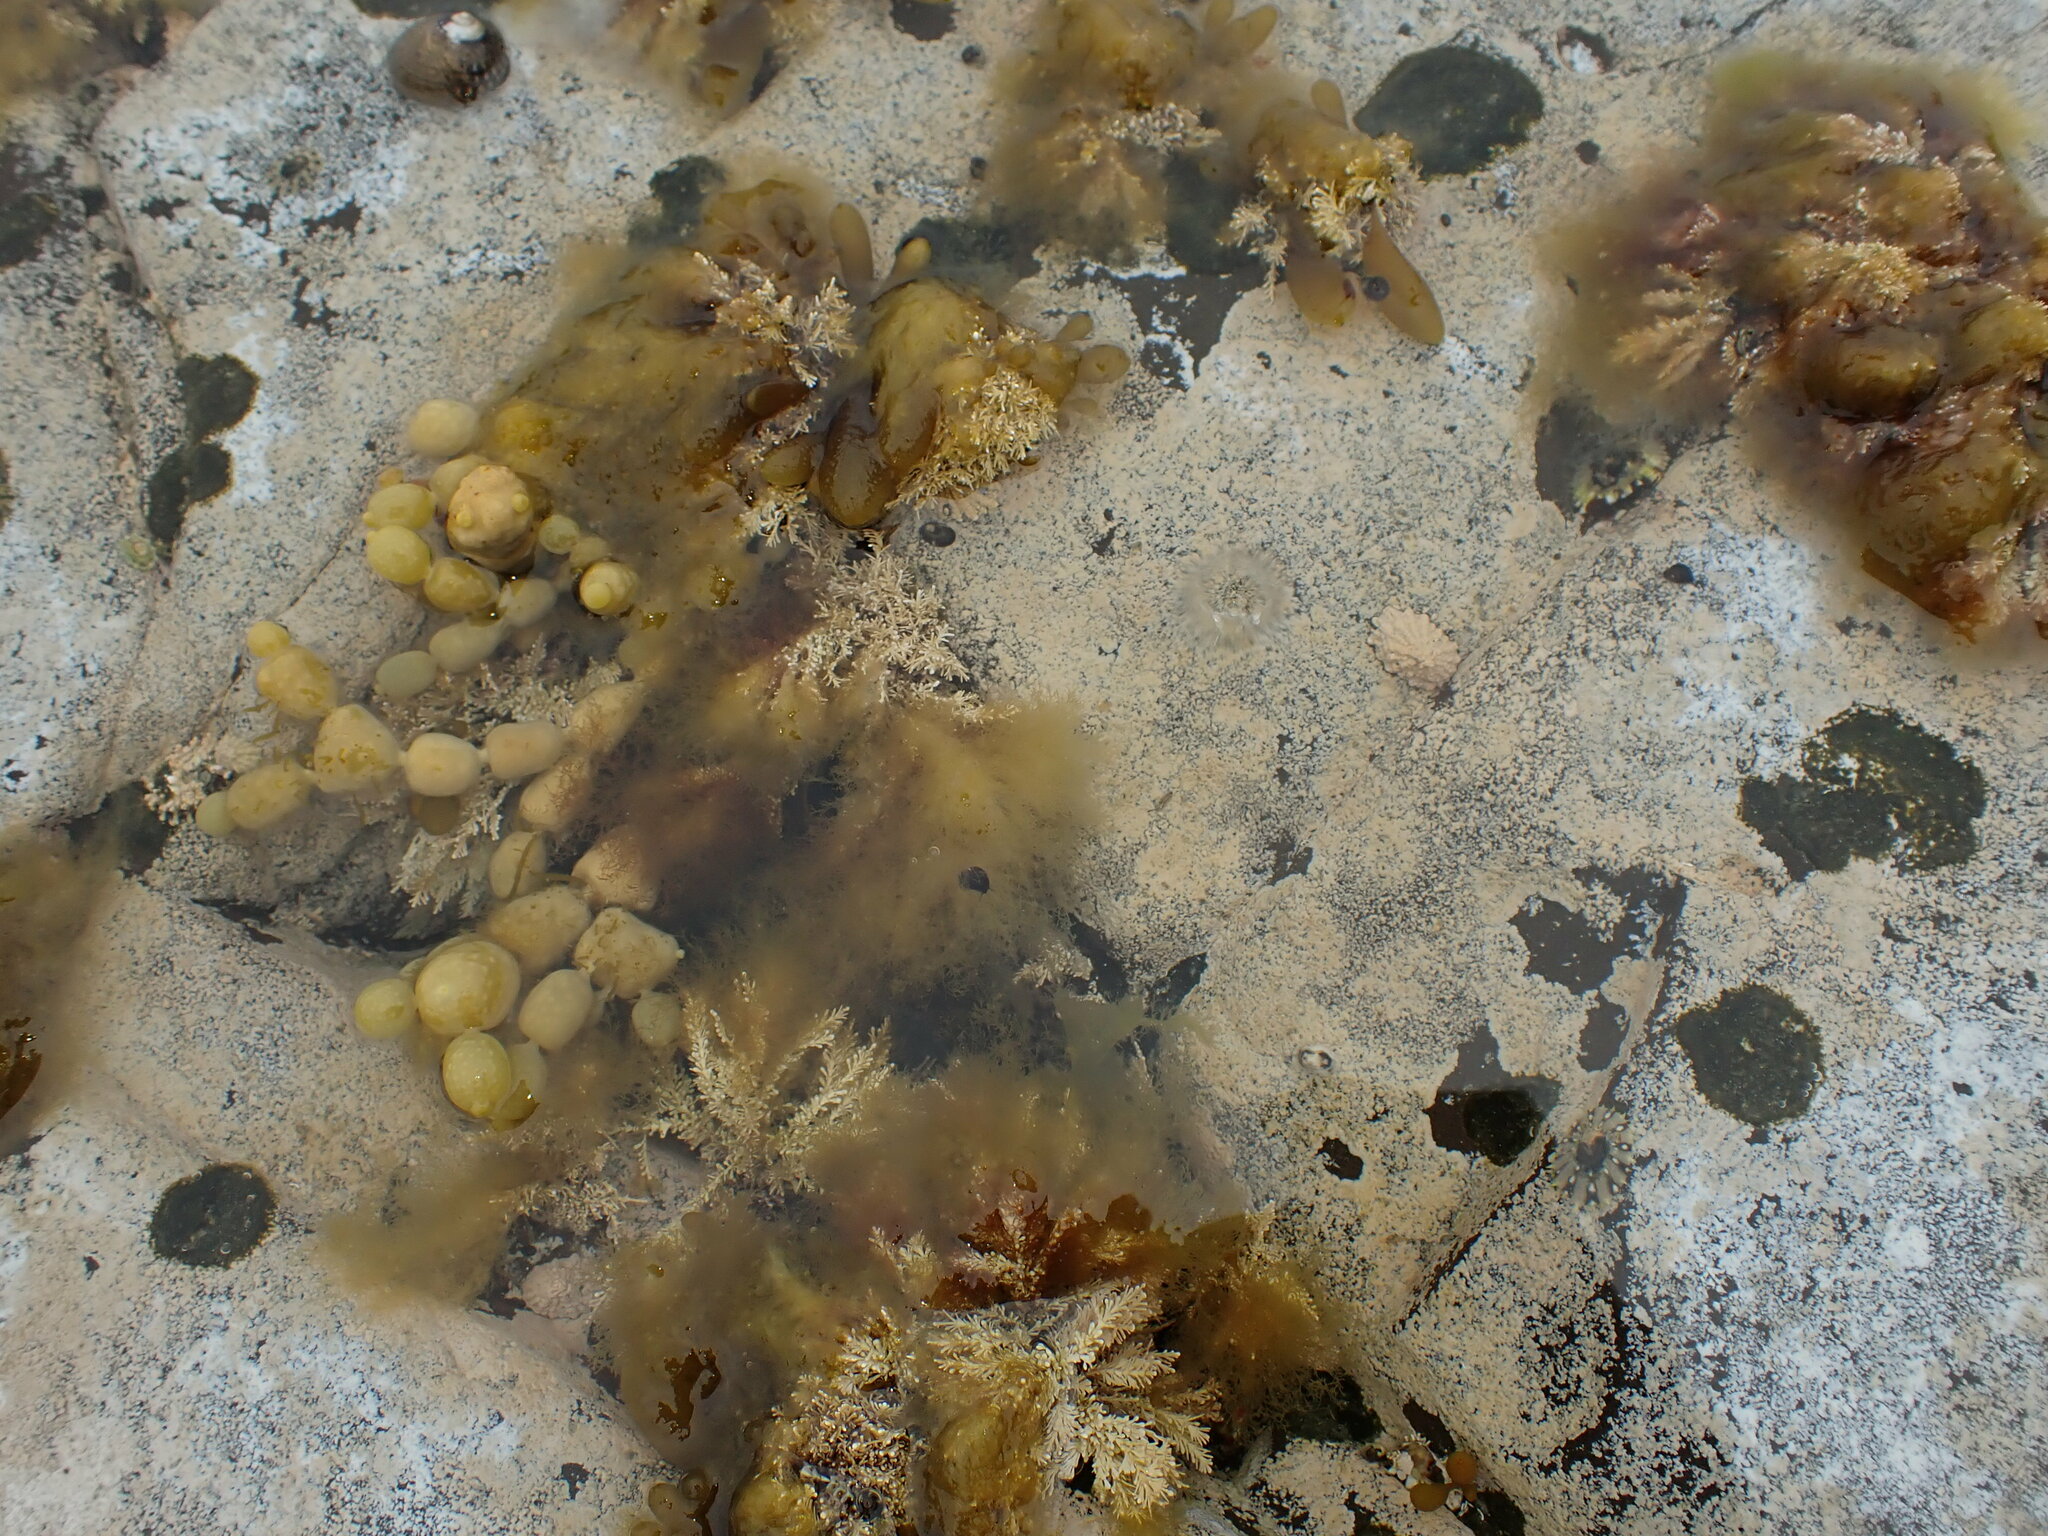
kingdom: Animalia
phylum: Mollusca
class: Gastropoda
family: Lottiidae
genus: Patelloida
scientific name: Patelloida corticata
